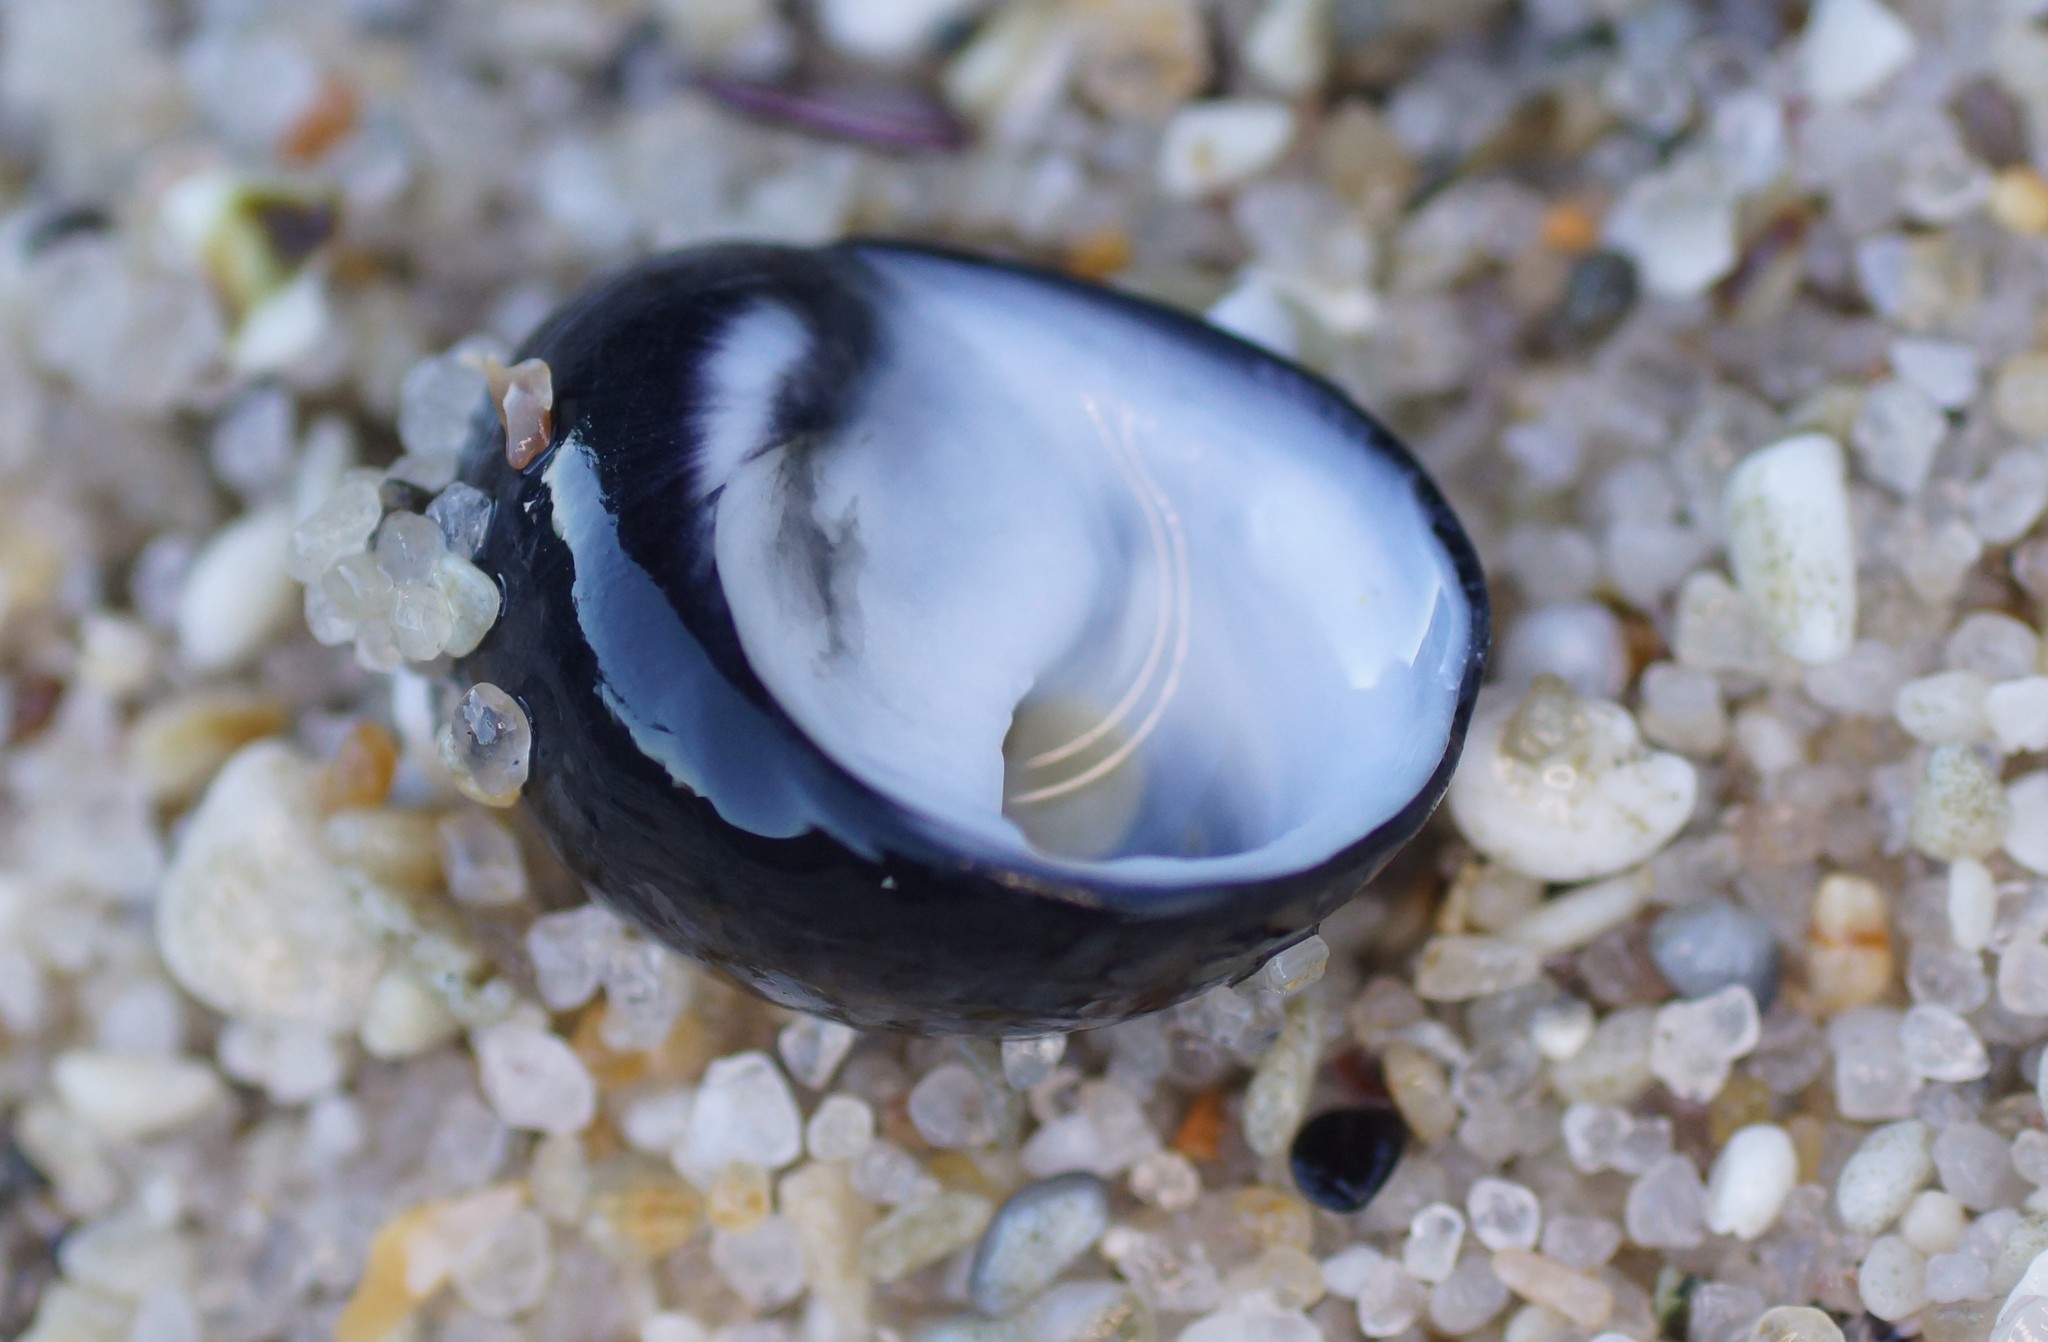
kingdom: Animalia
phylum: Mollusca
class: Gastropoda
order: Cycloneritida
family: Neritidae
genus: Nerita
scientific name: Nerita atramentosa
